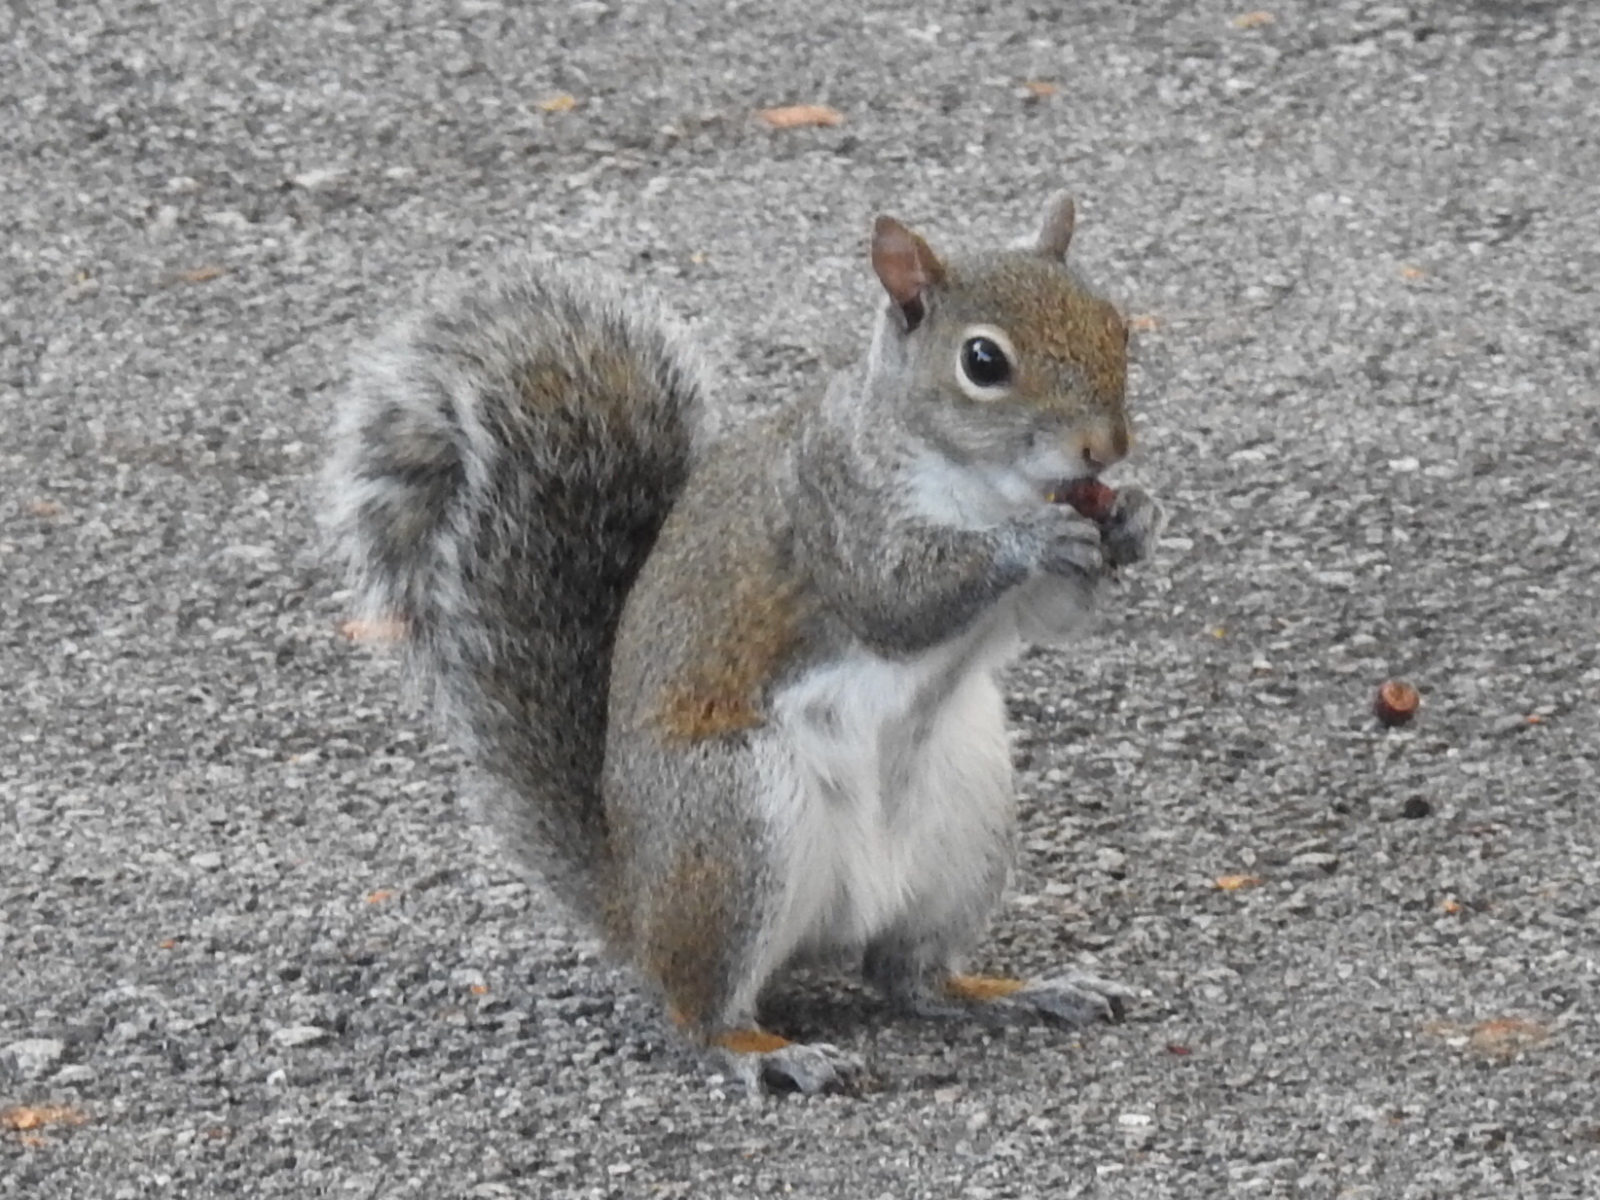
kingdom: Animalia
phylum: Chordata
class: Mammalia
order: Rodentia
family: Sciuridae
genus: Sciurus
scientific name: Sciurus carolinensis
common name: Eastern gray squirrel
